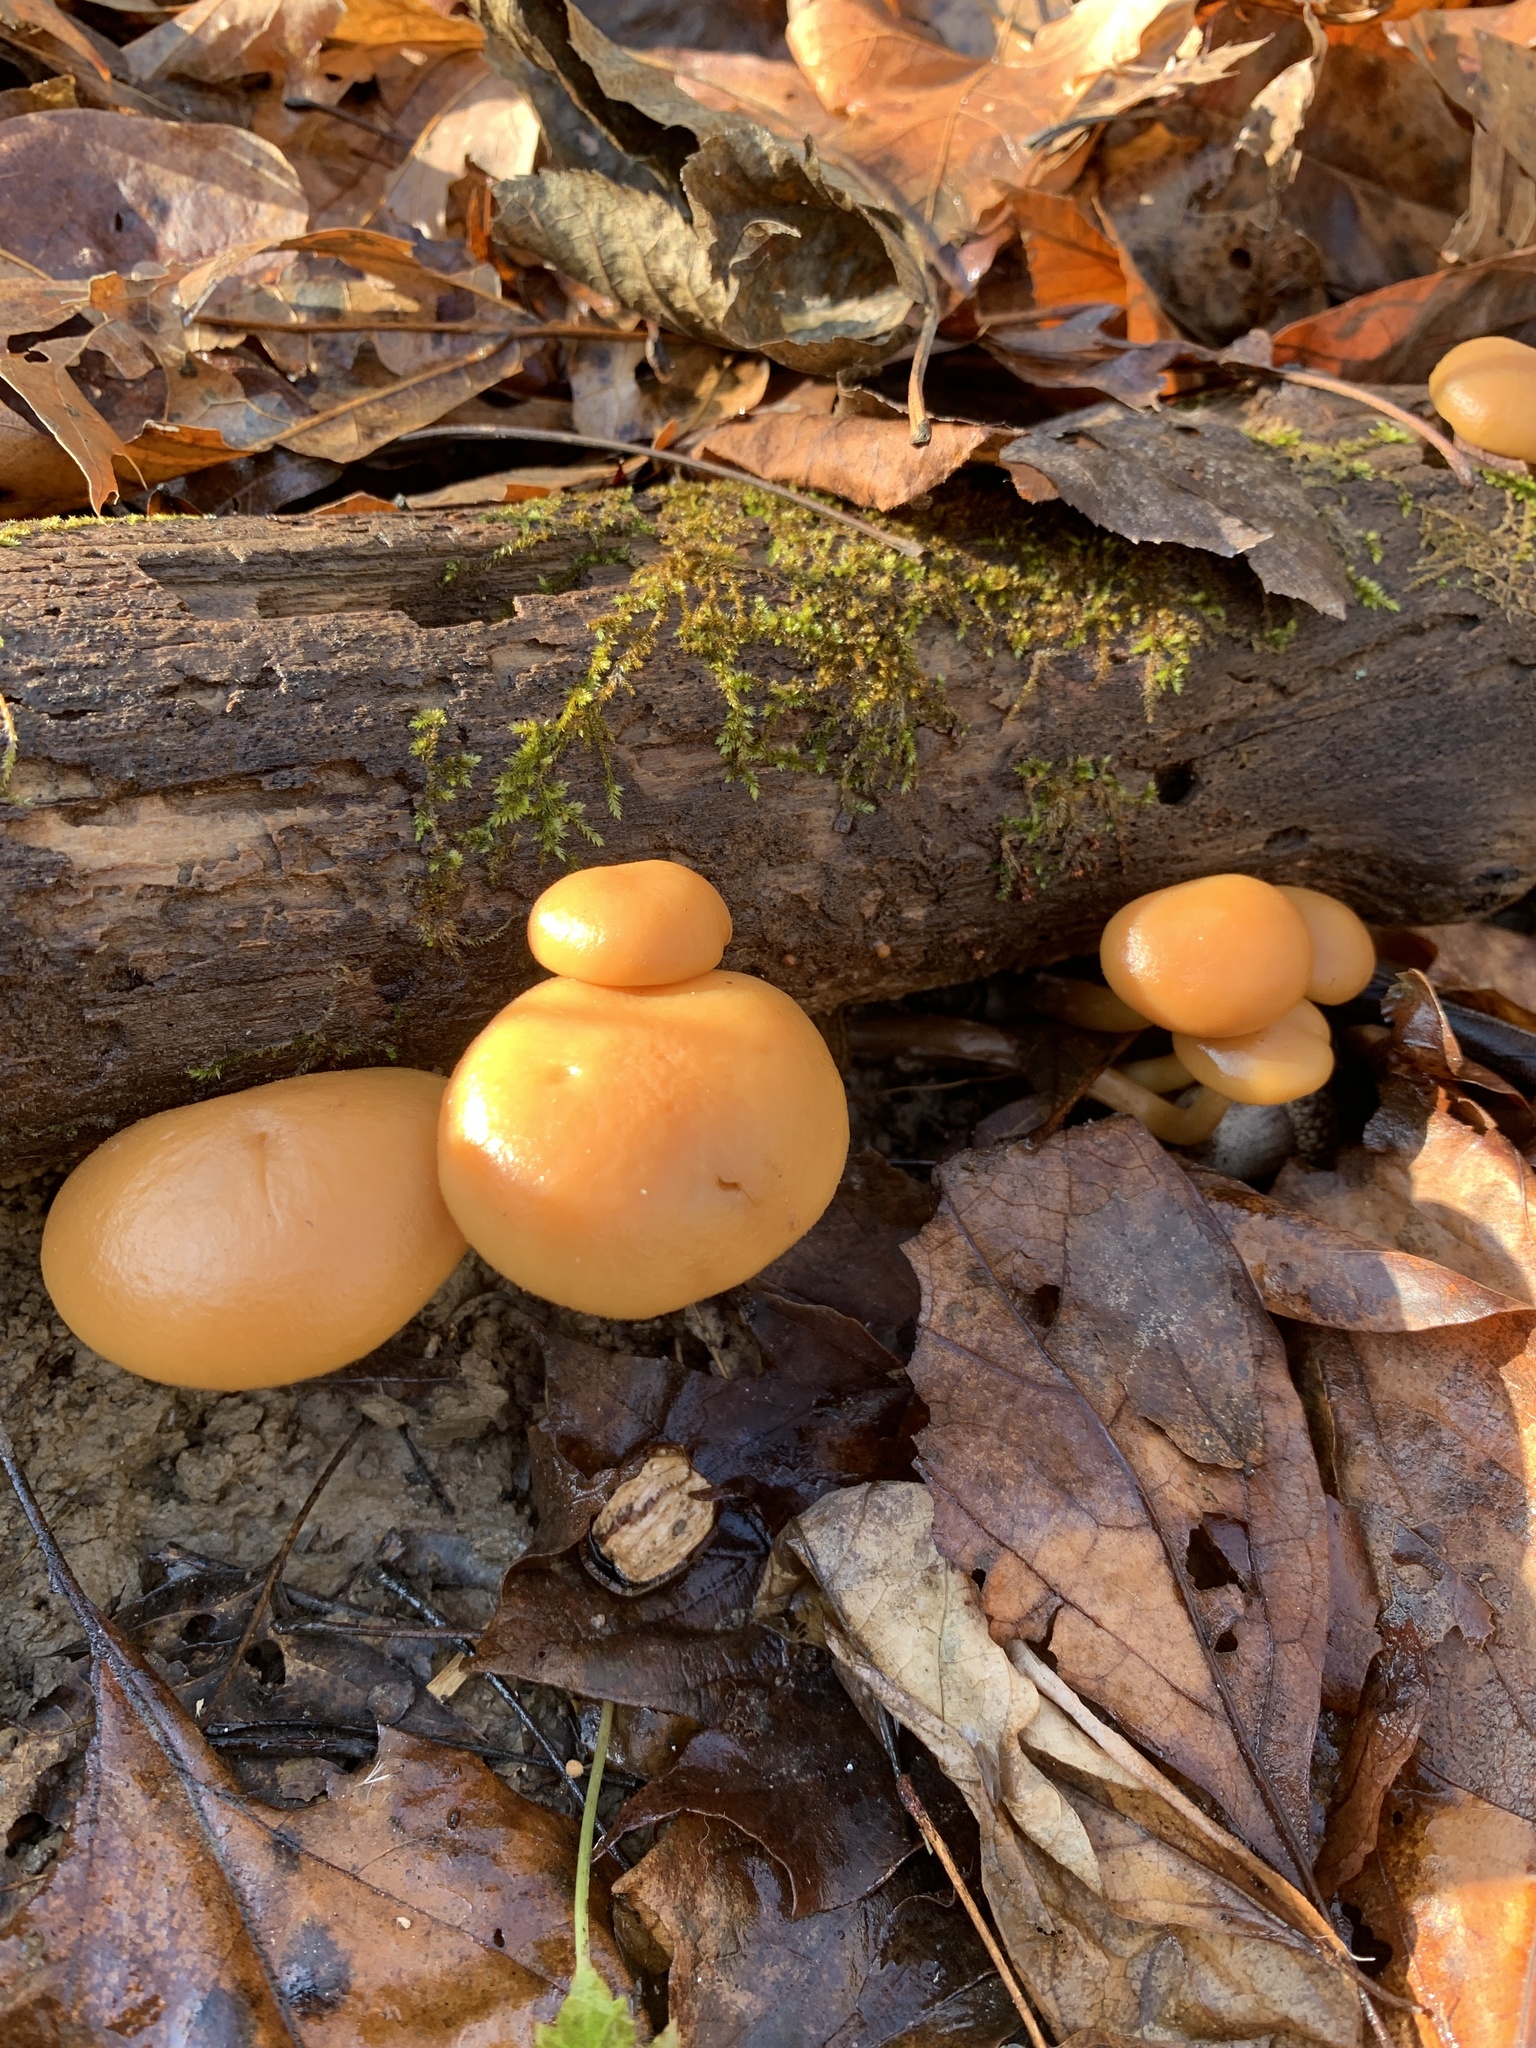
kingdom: Fungi
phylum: Basidiomycota
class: Agaricomycetes
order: Agaricales
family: Hymenogastraceae
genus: Galerina
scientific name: Galerina marginata
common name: Funeral bell
